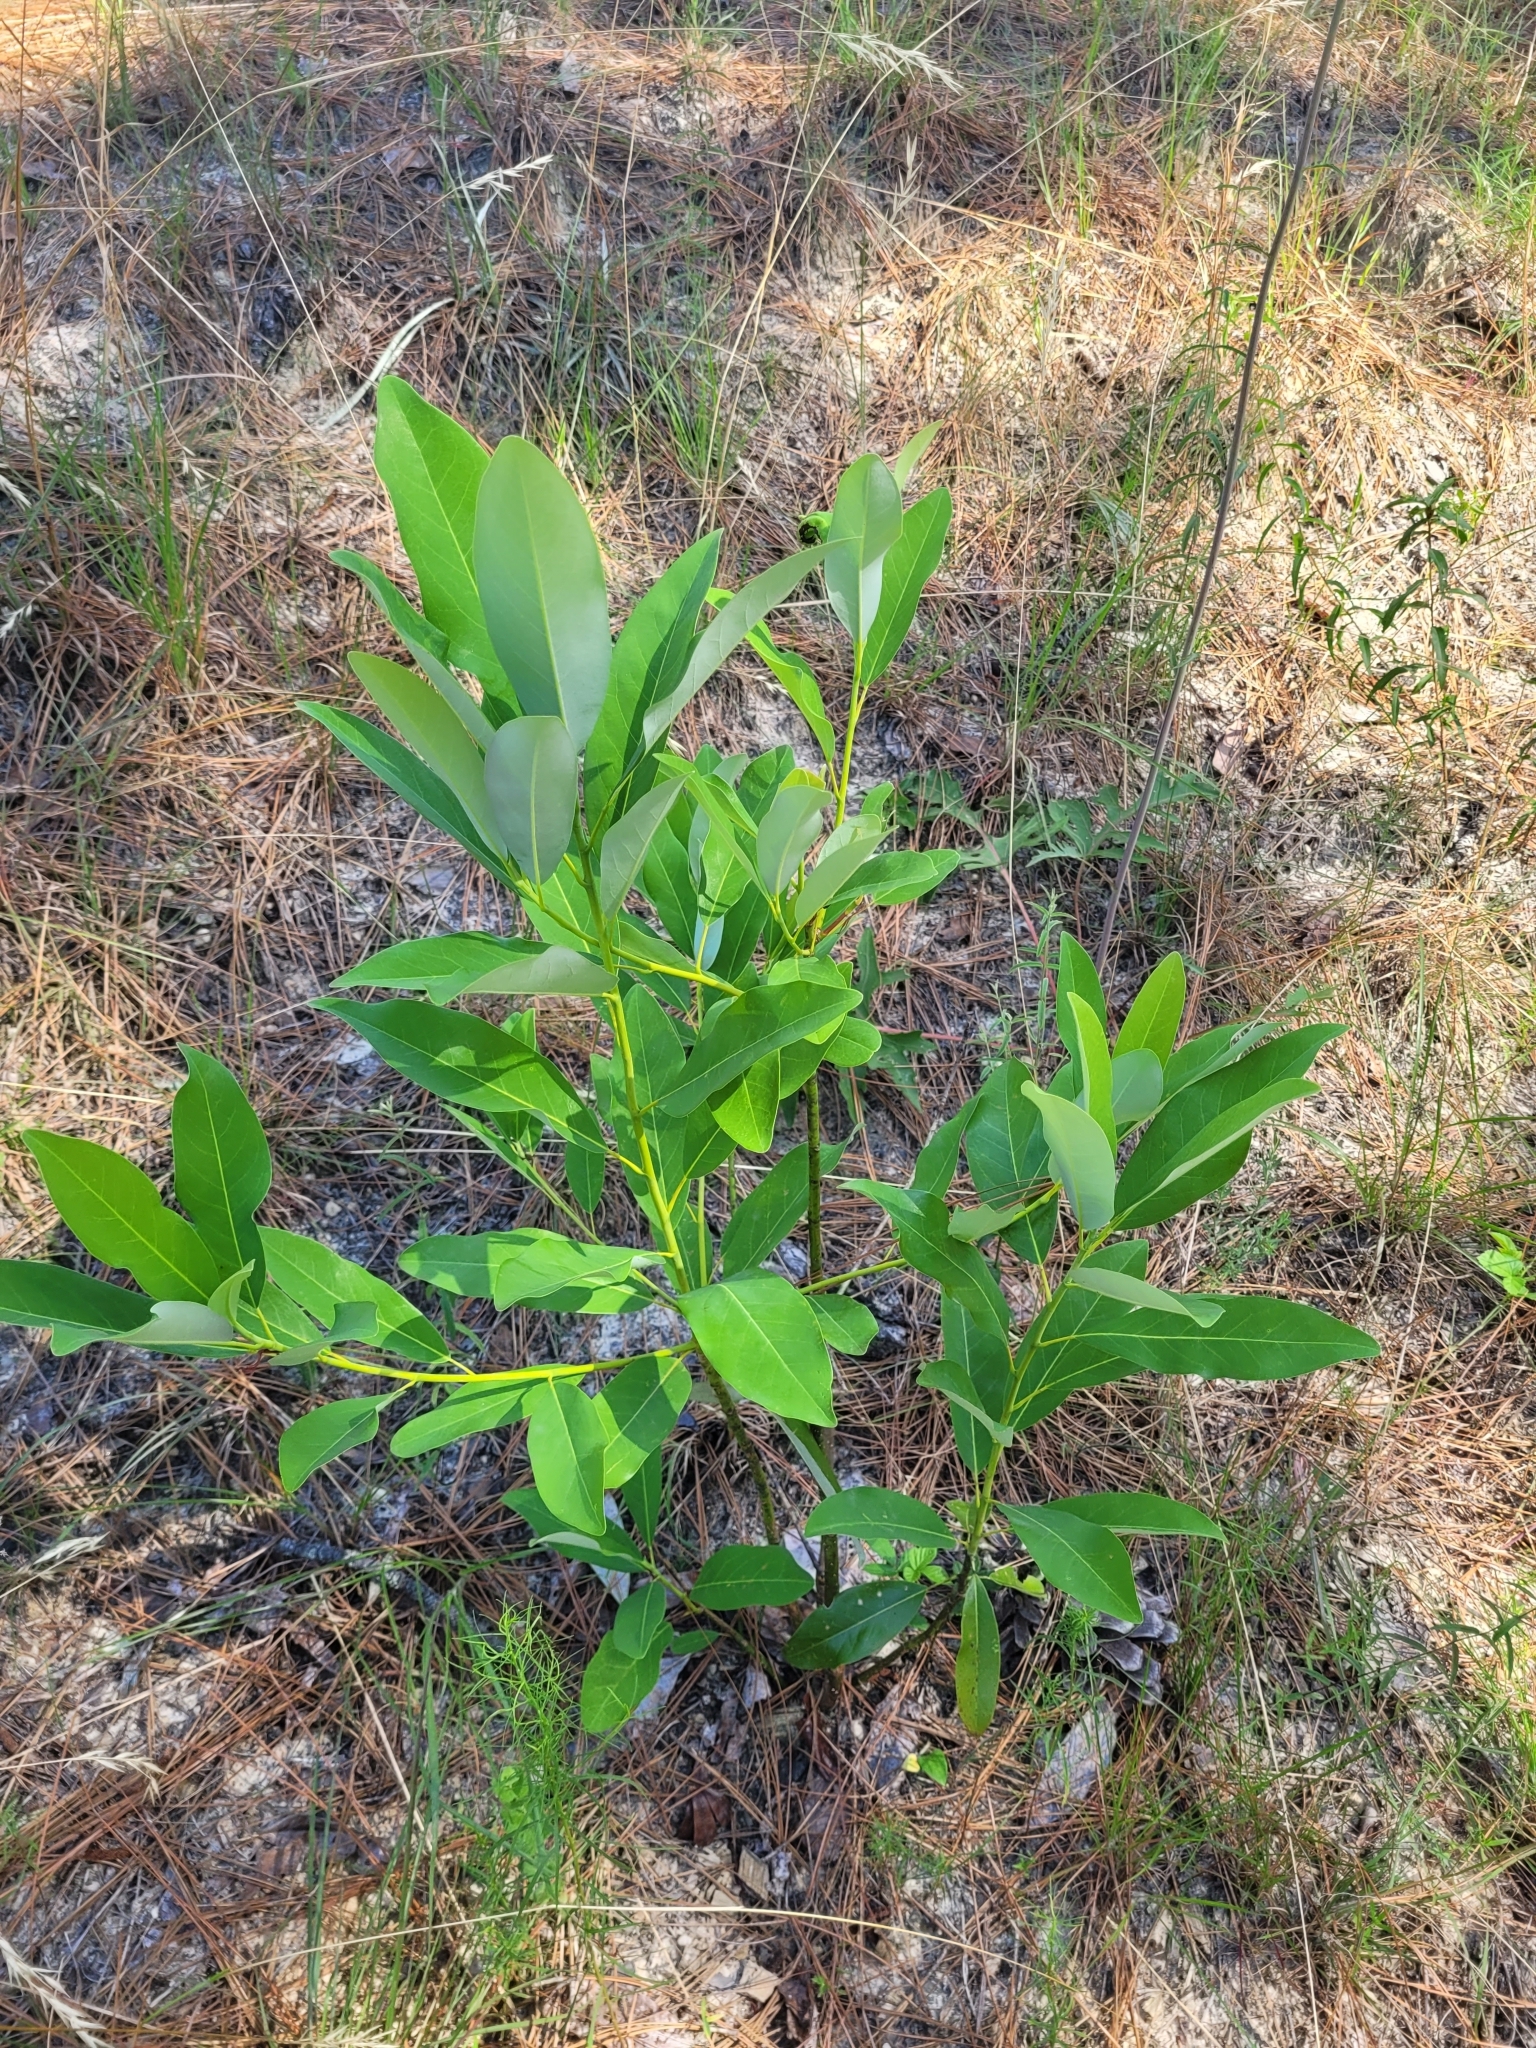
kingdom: Plantae
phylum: Tracheophyta
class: Magnoliopsida
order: Magnoliales
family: Magnoliaceae
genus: Magnolia
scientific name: Magnolia virginiana
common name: Swamp bay
